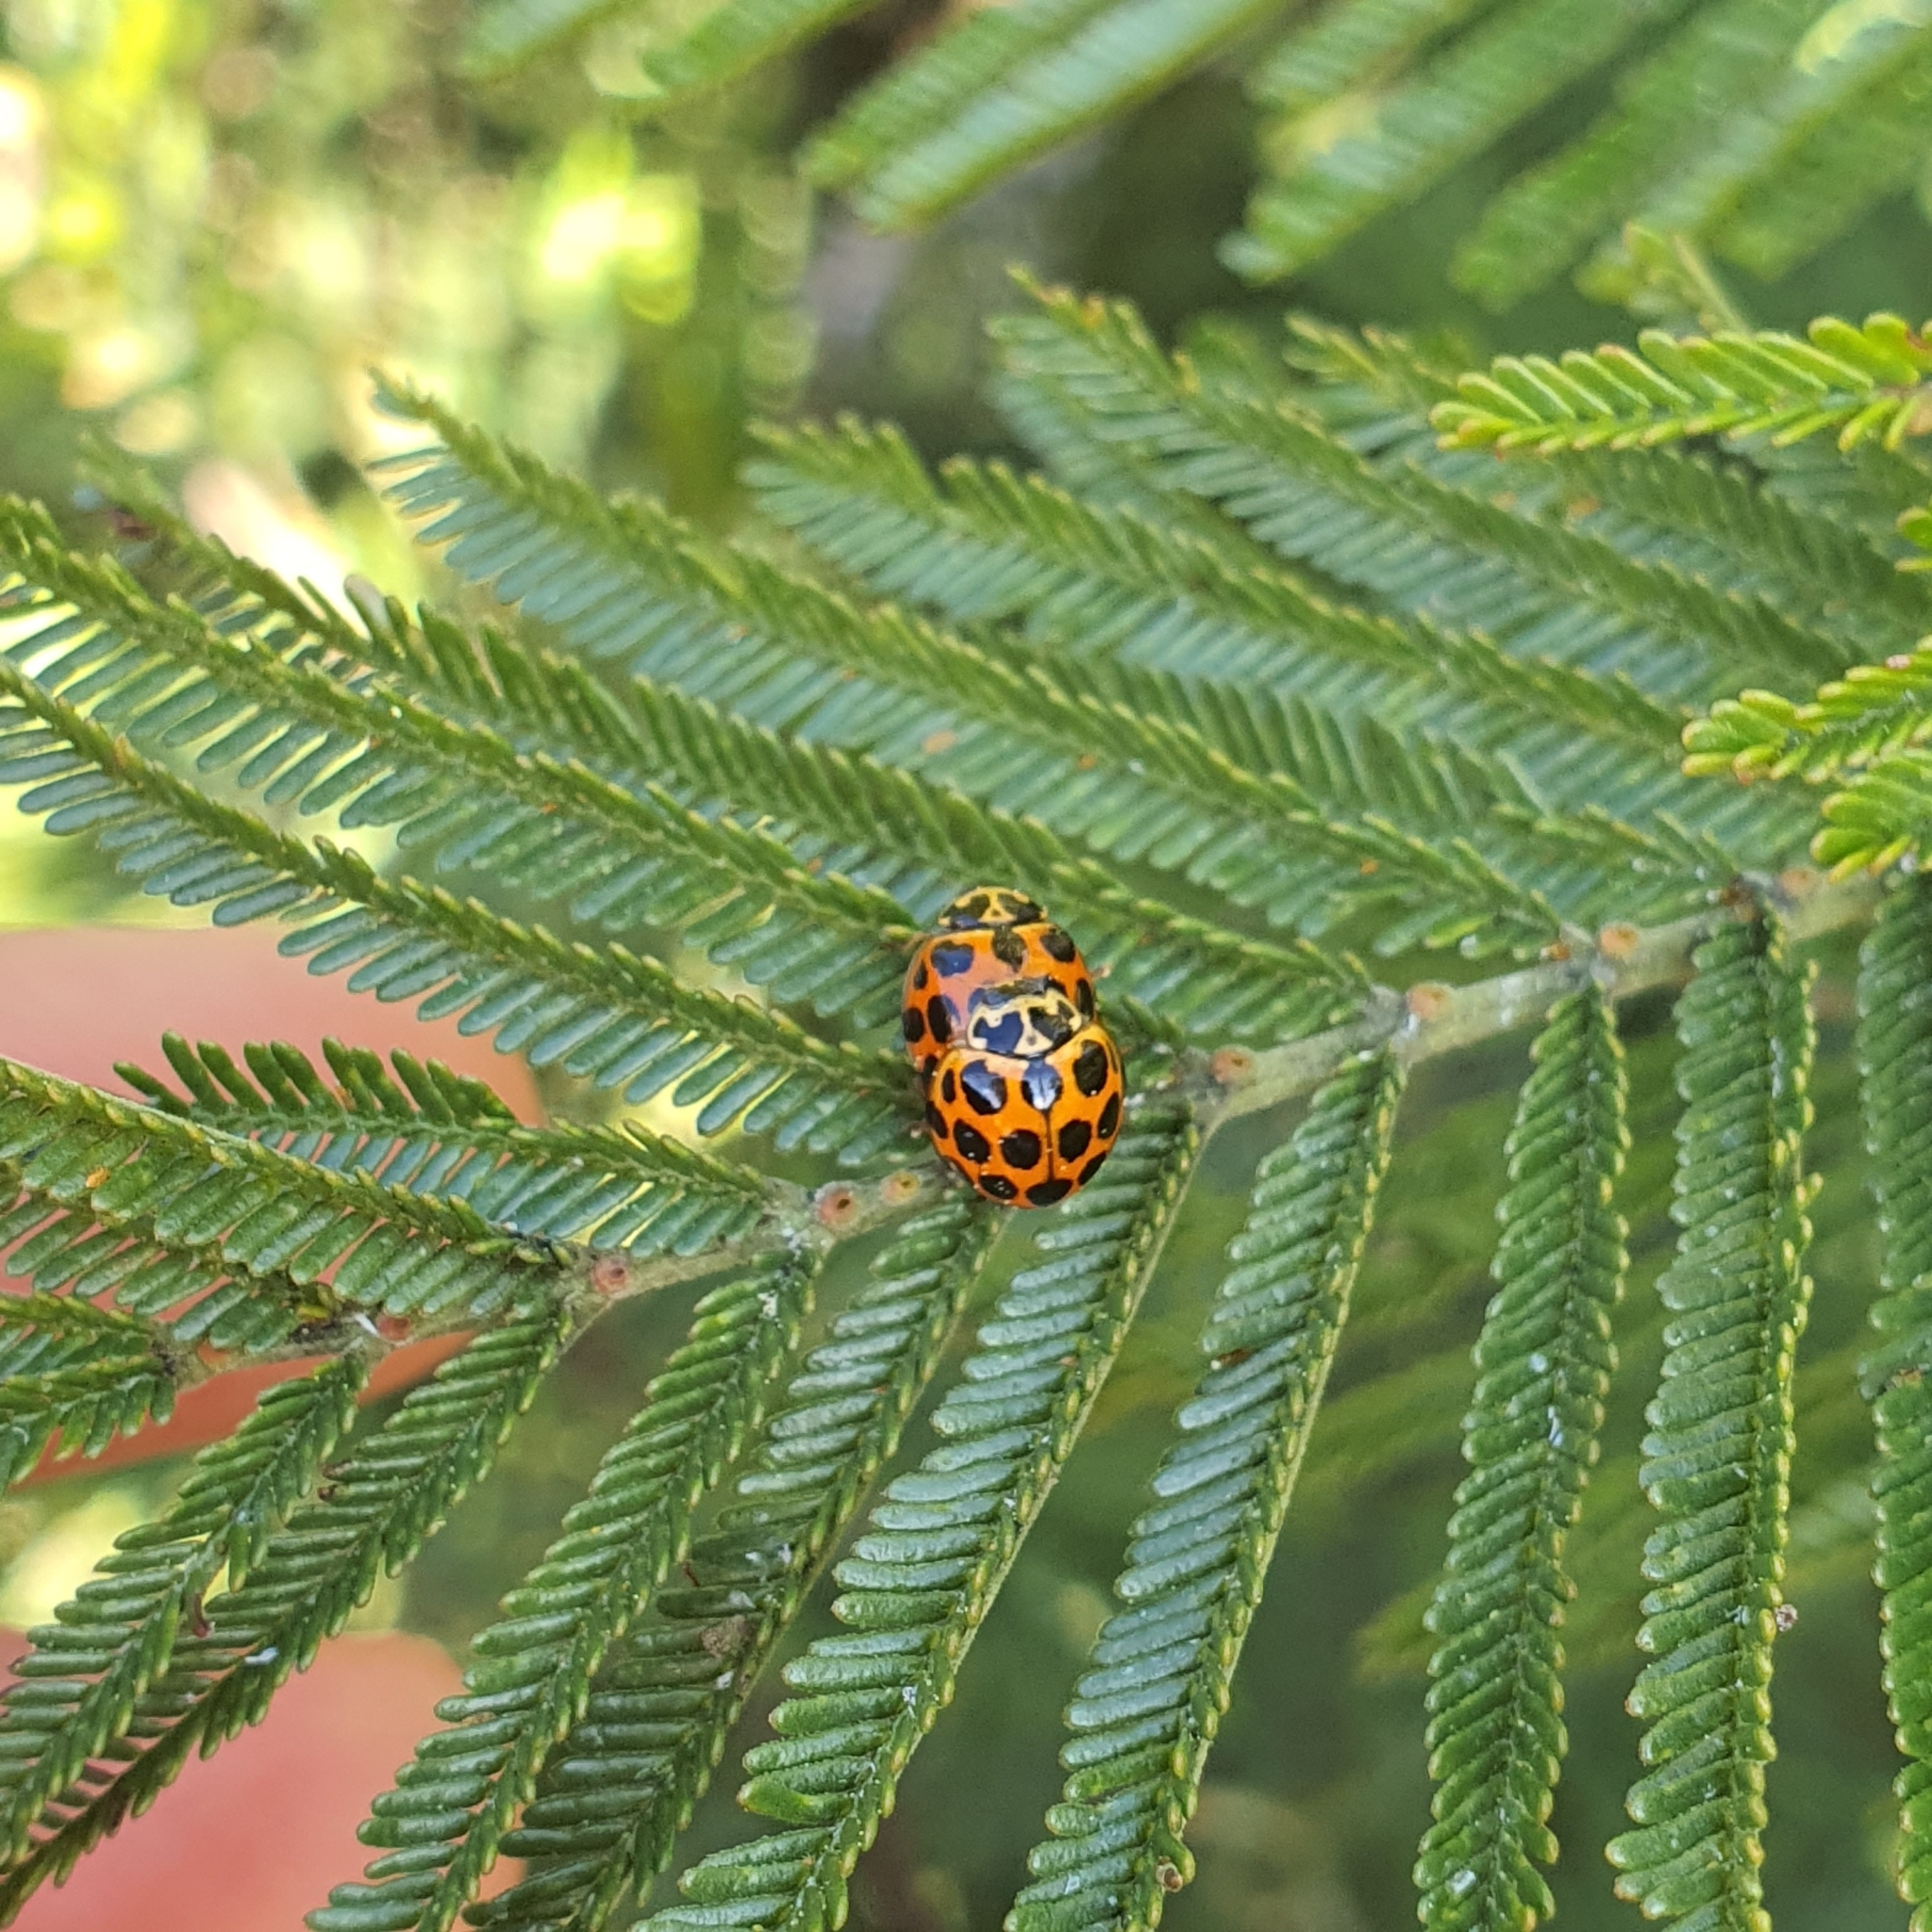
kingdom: Animalia
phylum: Arthropoda
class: Insecta
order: Coleoptera
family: Coccinellidae
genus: Harmonia
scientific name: Harmonia conformis
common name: Common spotted ladybird beetle
